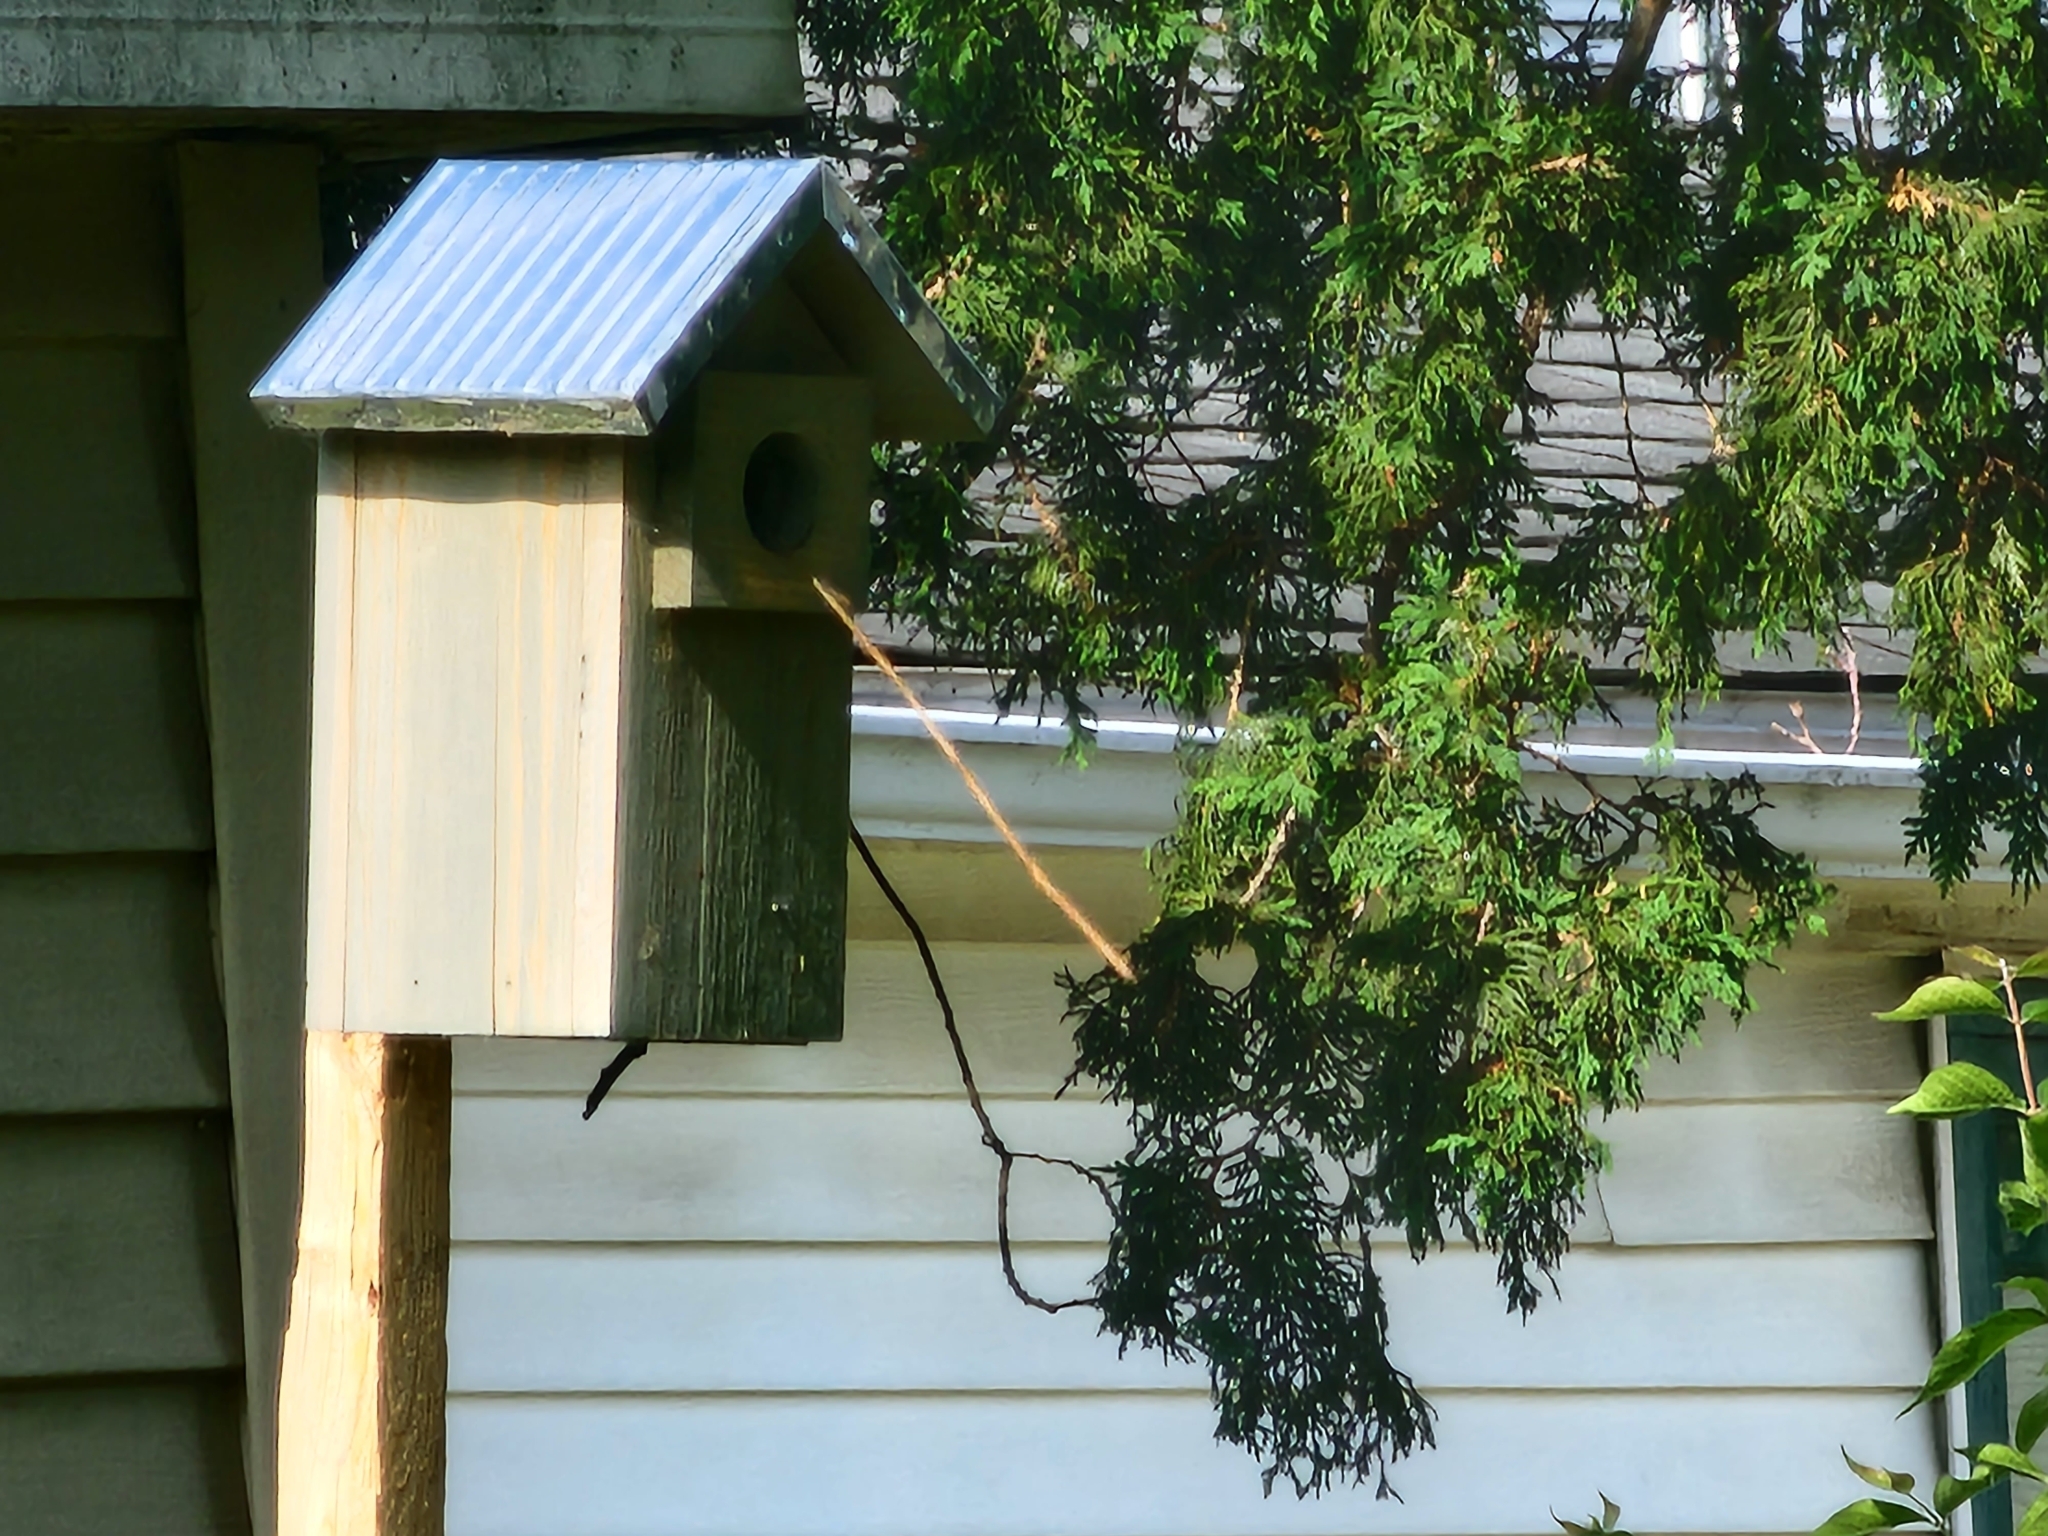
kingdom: Animalia
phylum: Chordata
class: Aves
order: Passeriformes
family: Troglodytidae
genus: Troglodytes
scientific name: Troglodytes aedon
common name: House wren
